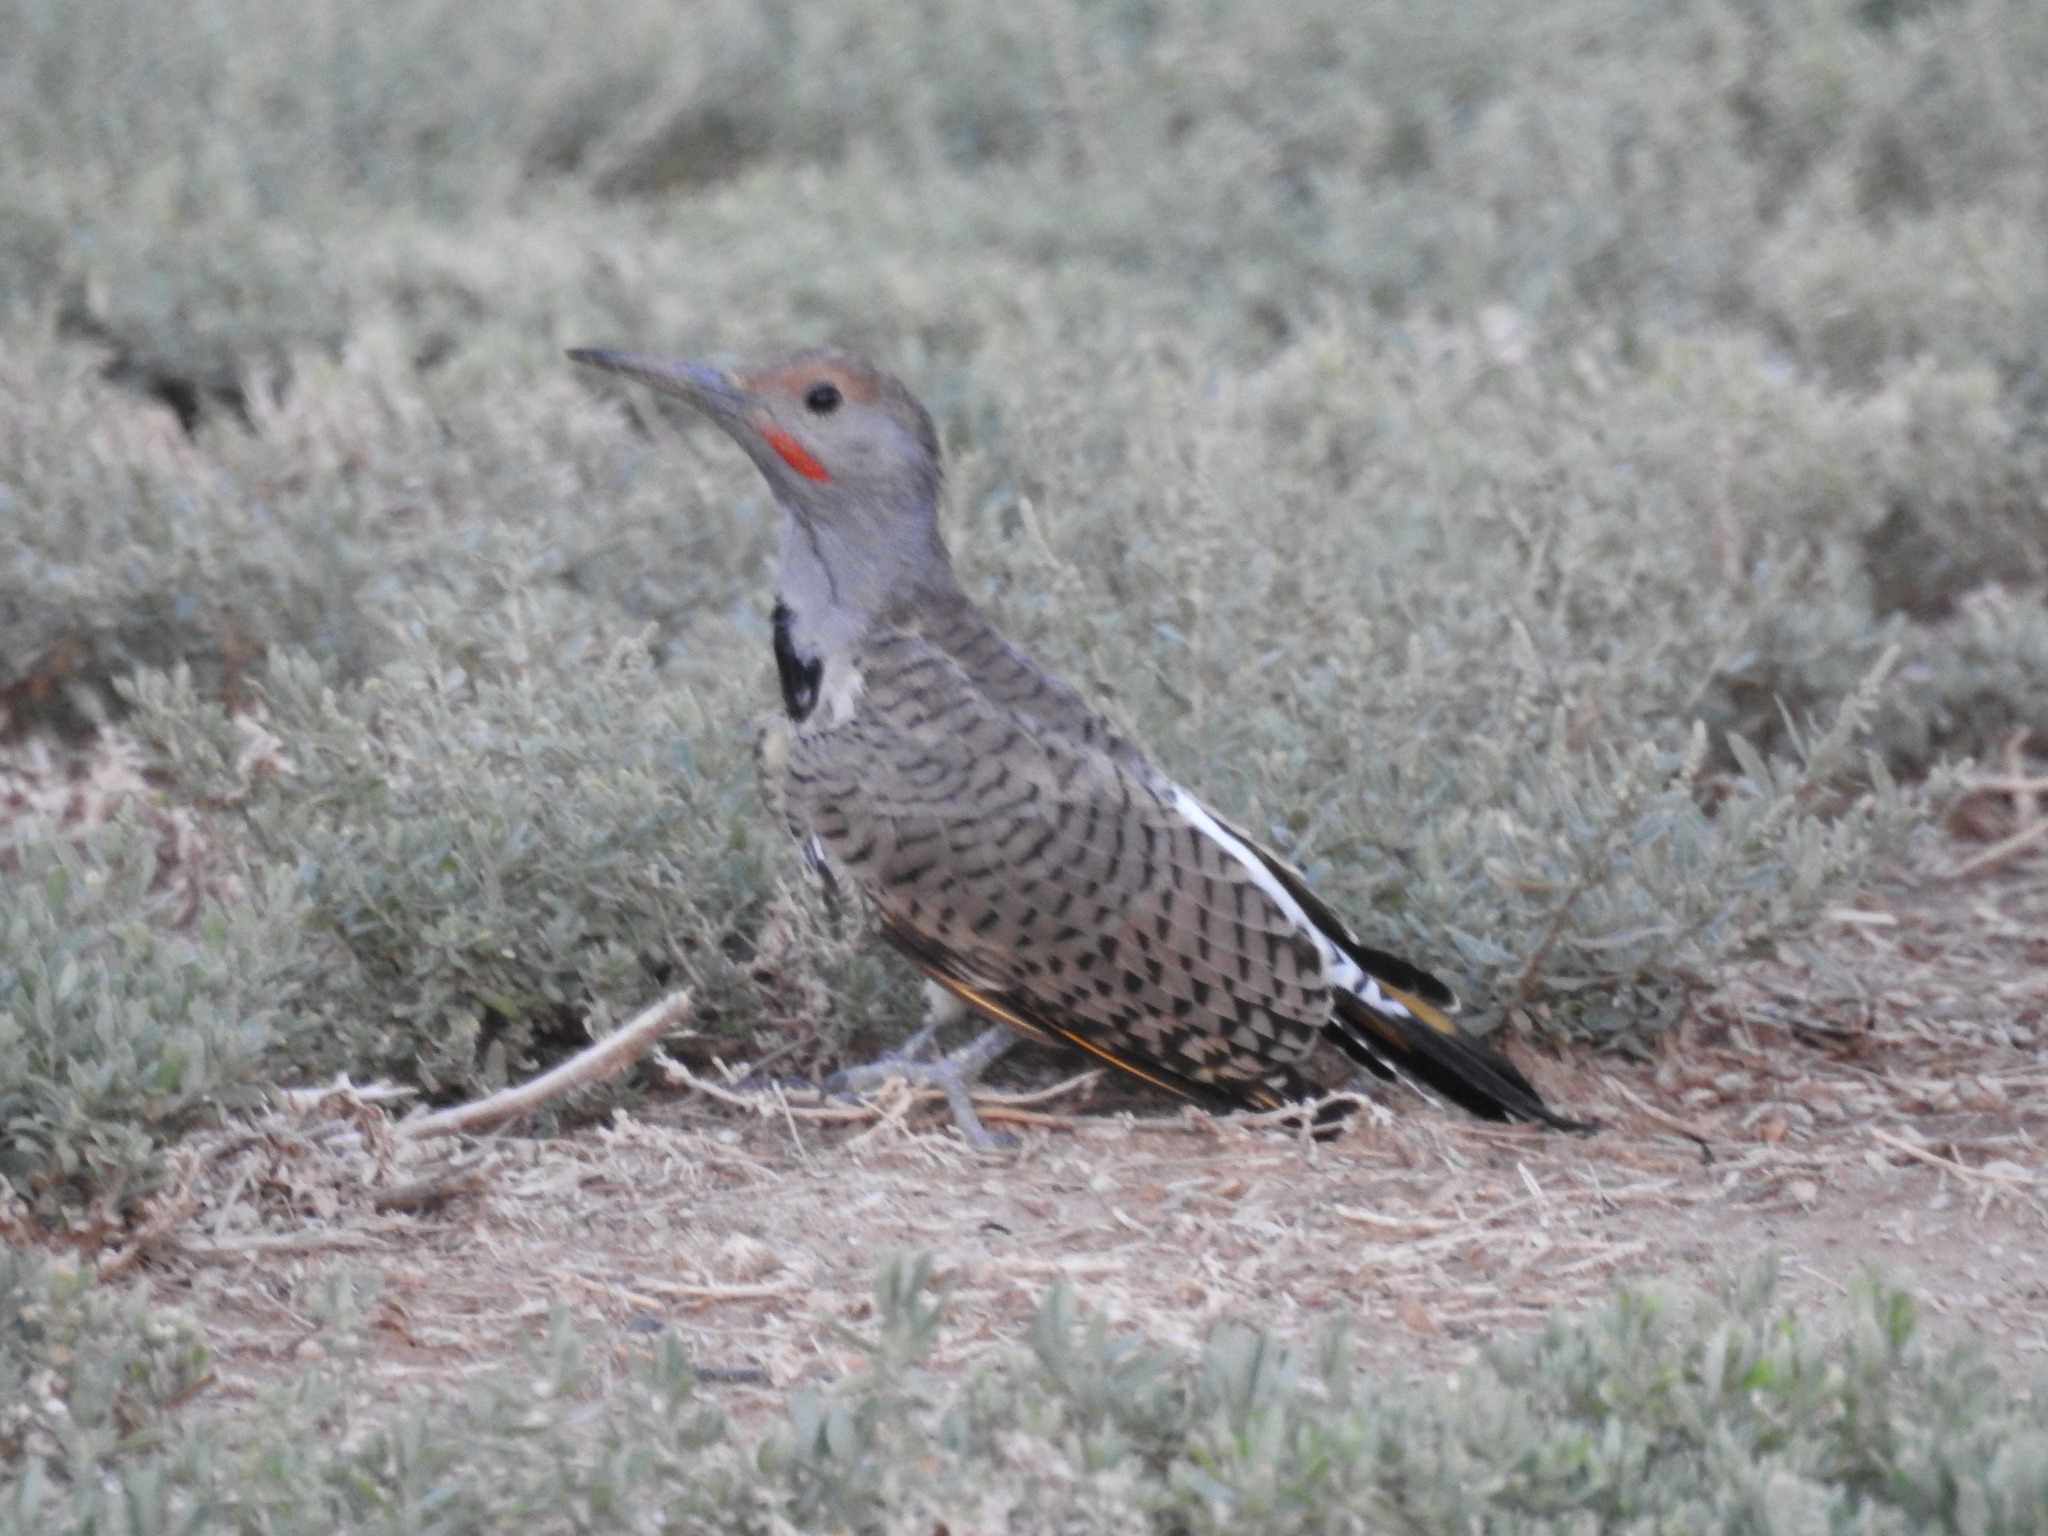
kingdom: Animalia
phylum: Chordata
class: Aves
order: Piciformes
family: Picidae
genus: Colaptes
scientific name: Colaptes chrysoides
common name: Gilded flicker
